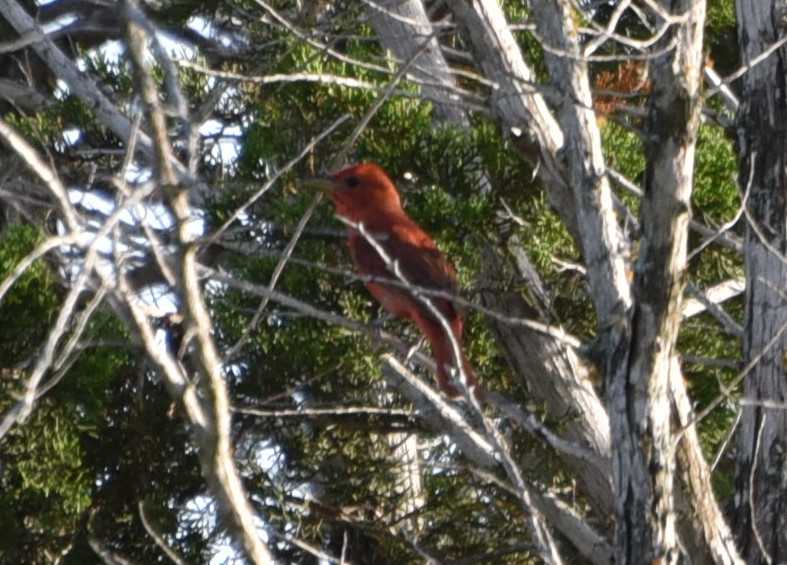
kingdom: Animalia
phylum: Chordata
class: Aves
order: Passeriformes
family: Cardinalidae
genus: Piranga
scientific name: Piranga rubra
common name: Summer tanager
